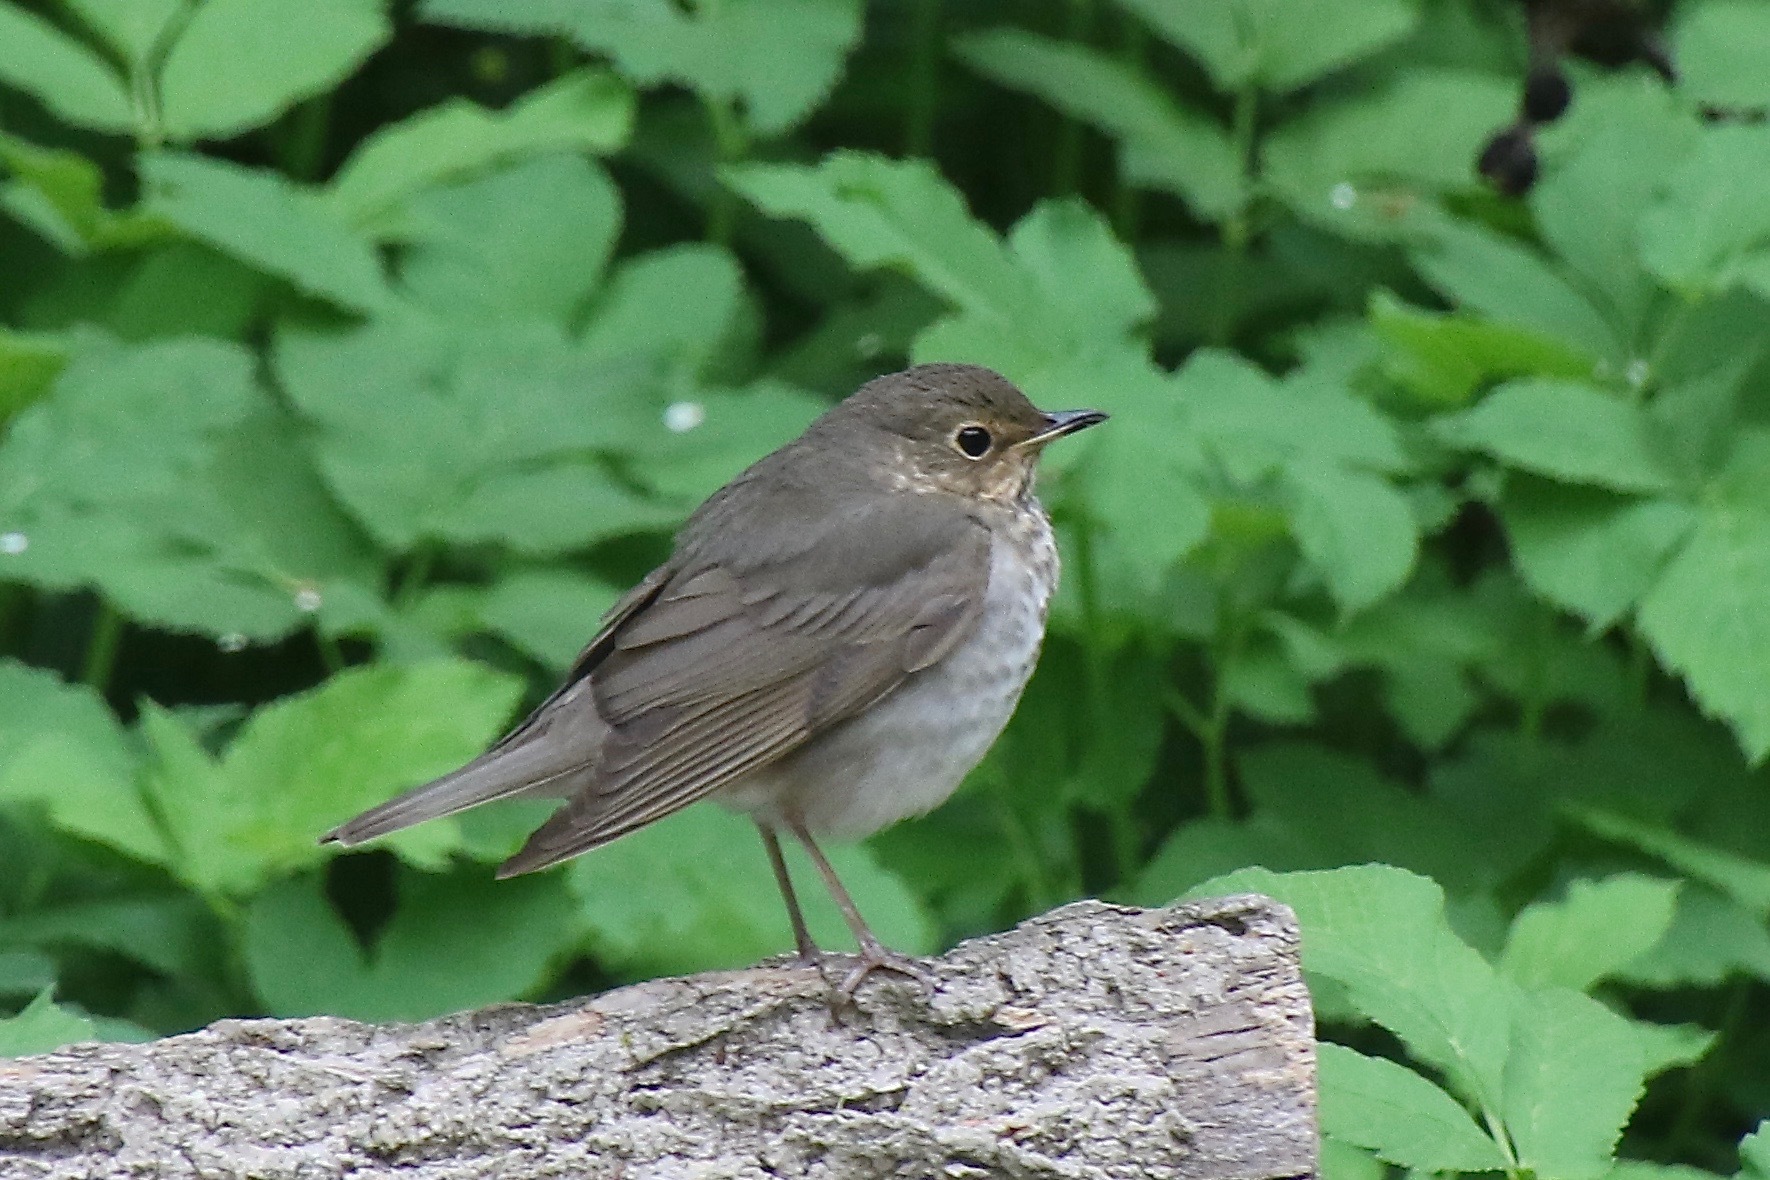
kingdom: Animalia
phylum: Chordata
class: Aves
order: Passeriformes
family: Turdidae
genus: Catharus
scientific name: Catharus ustulatus
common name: Swainson's thrush
